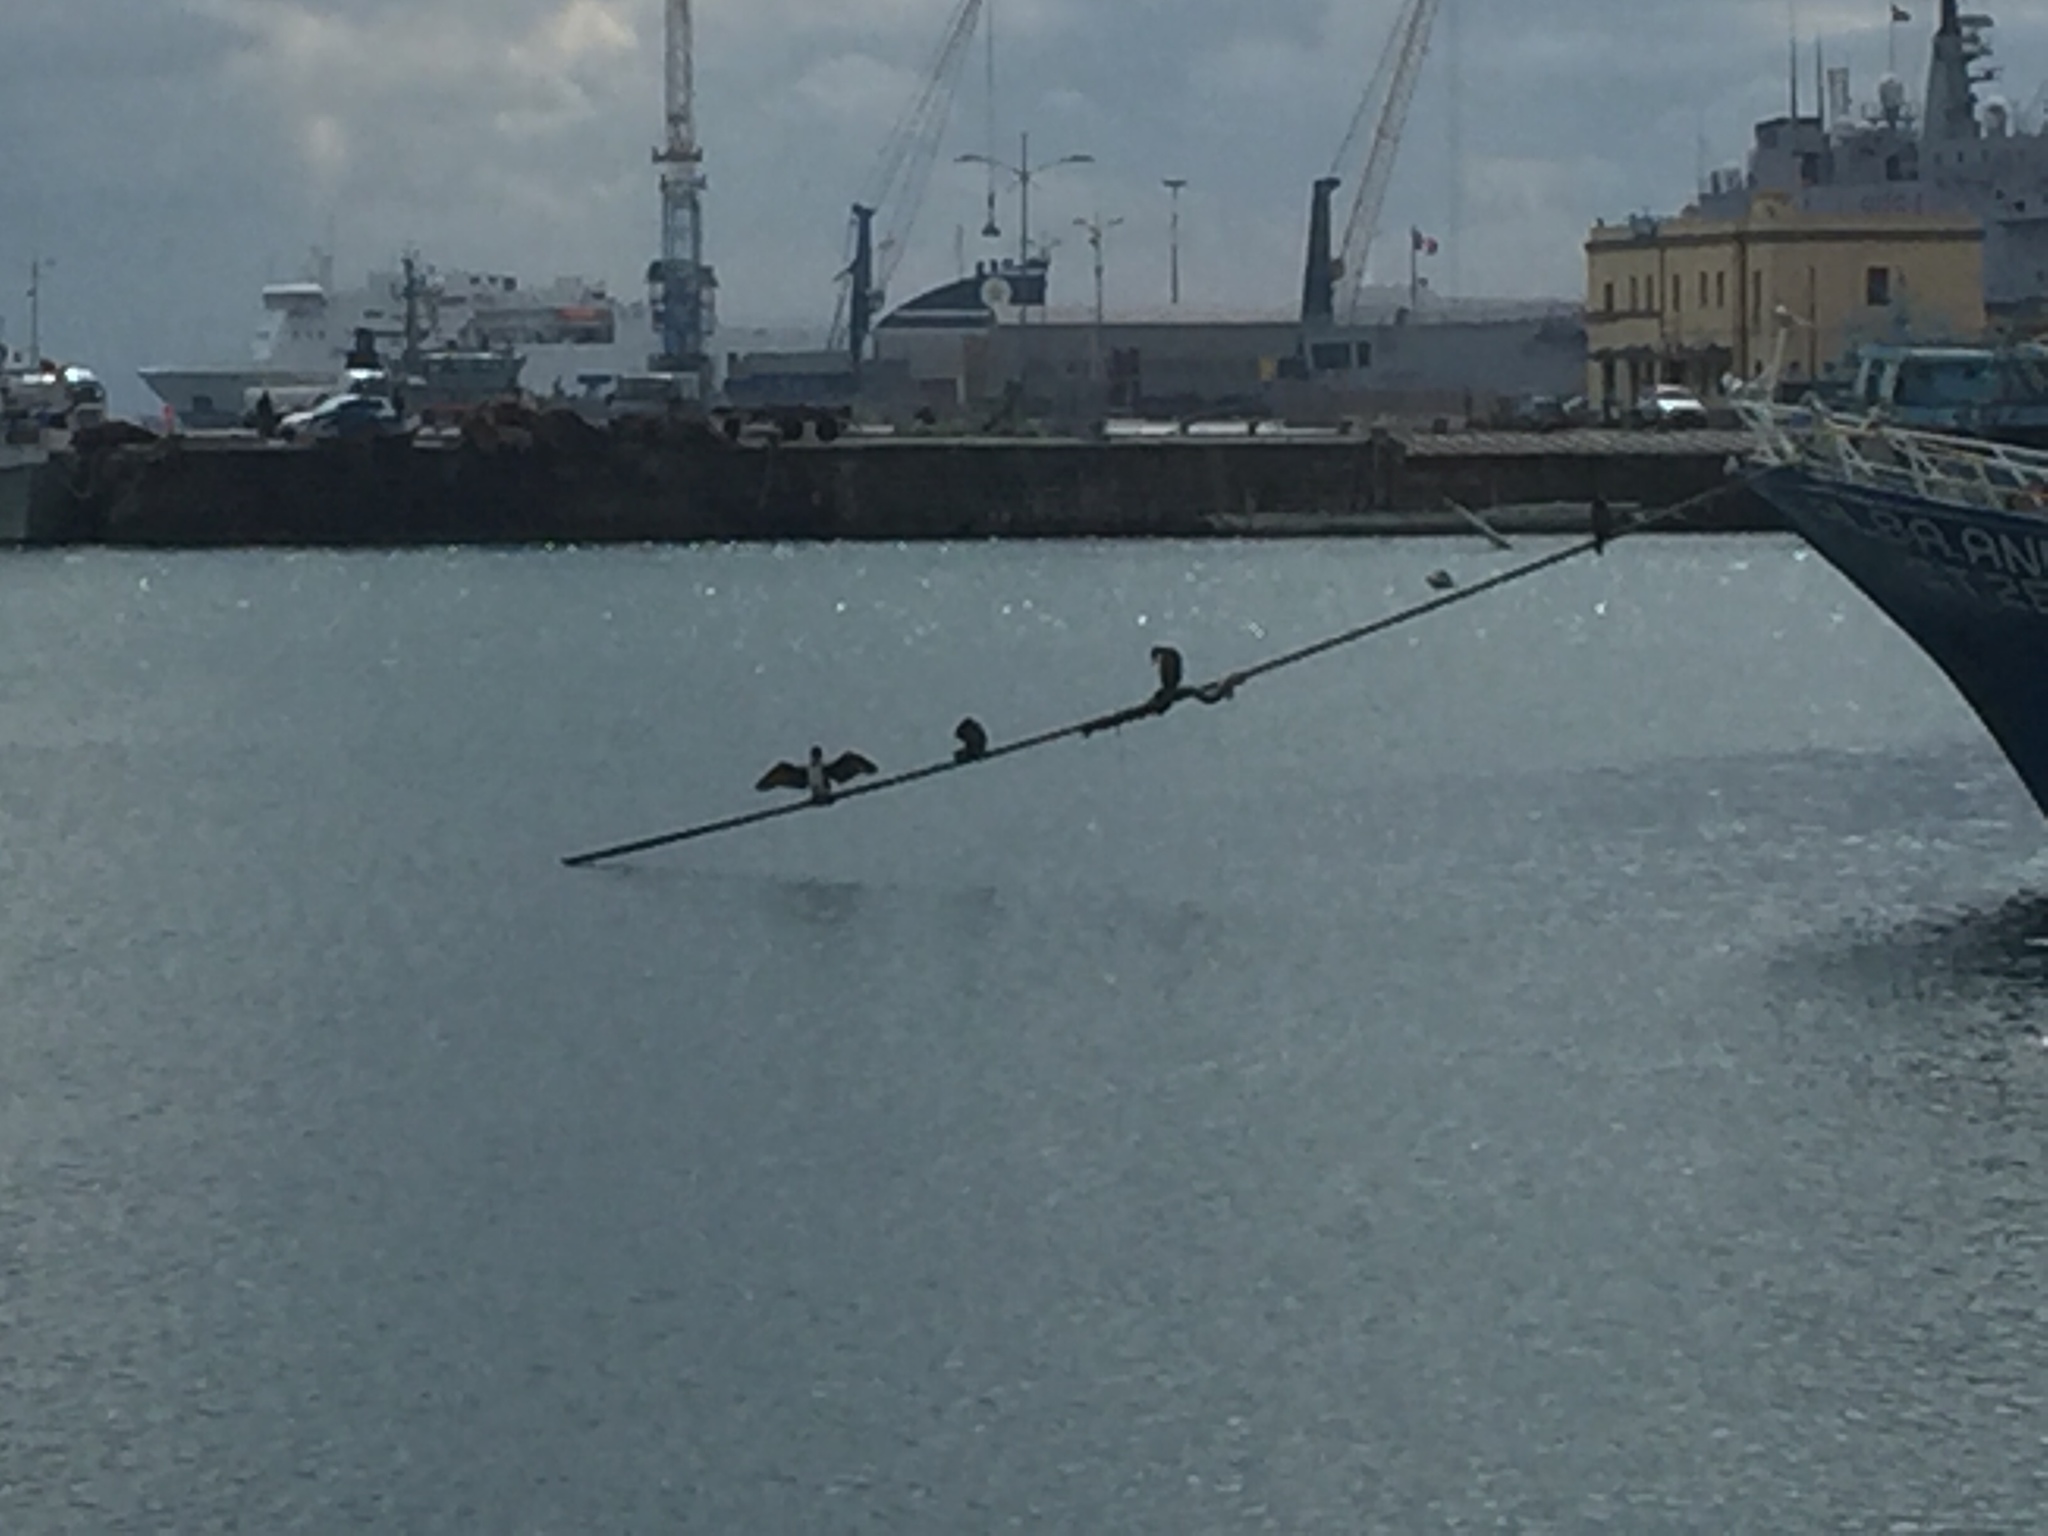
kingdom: Animalia
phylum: Chordata
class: Aves
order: Suliformes
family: Phalacrocoracidae
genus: Phalacrocorax
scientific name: Phalacrocorax carbo
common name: Great cormorant
